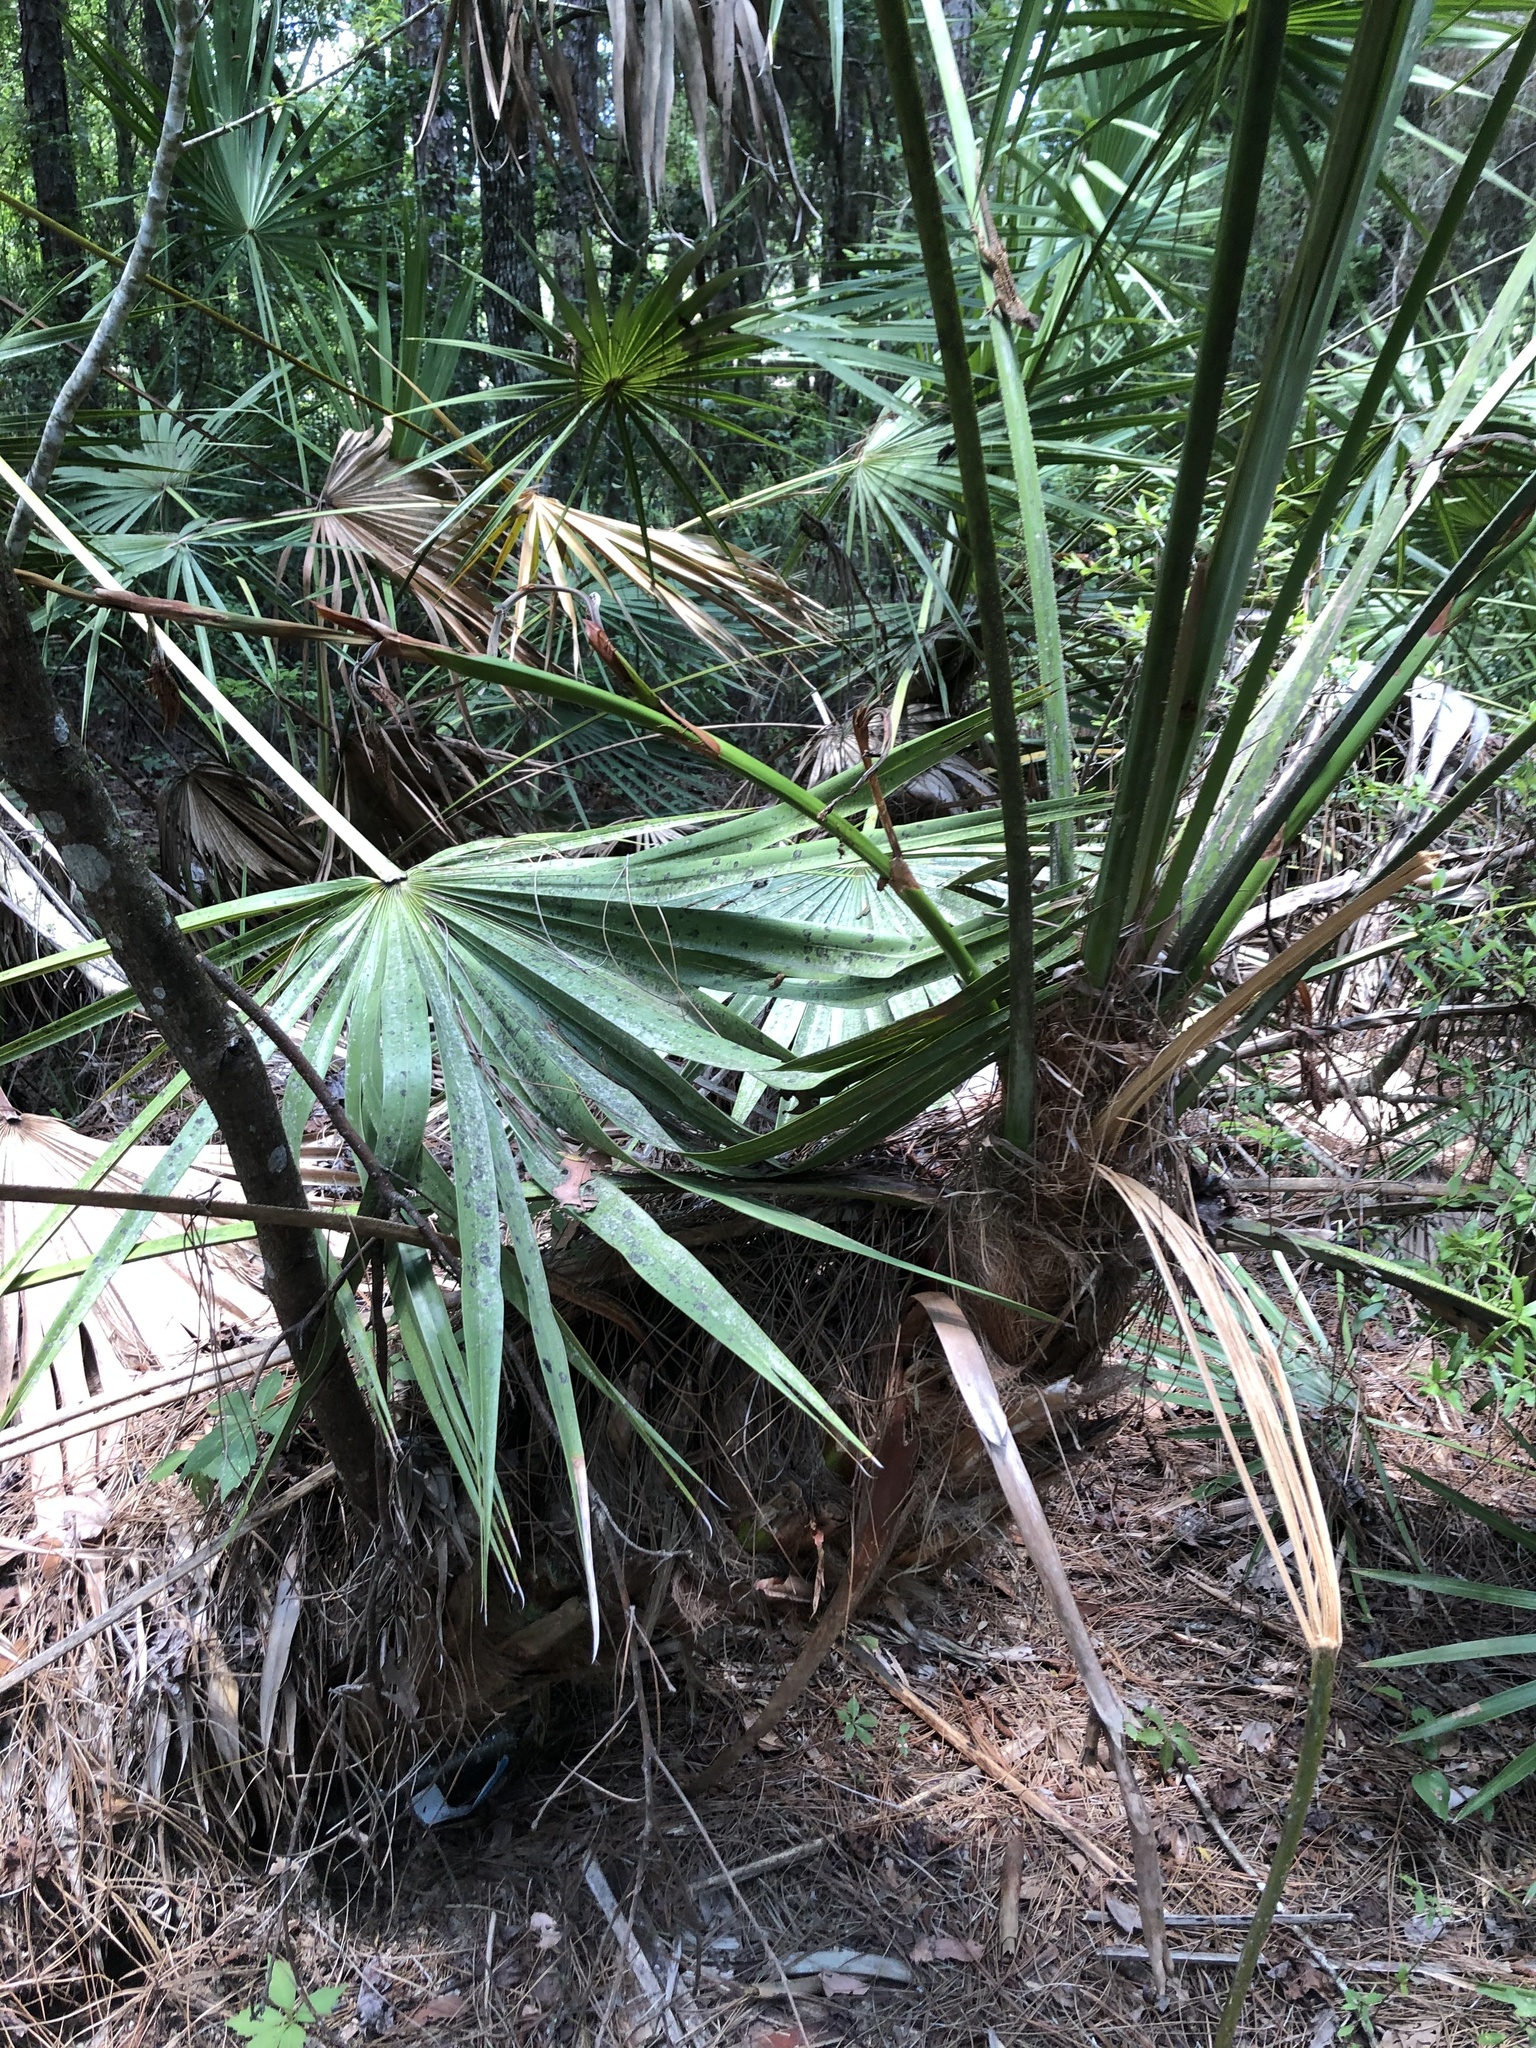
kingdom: Plantae
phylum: Tracheophyta
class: Liliopsida
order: Arecales
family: Arecaceae
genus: Serenoa
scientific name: Serenoa repens
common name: Saw-palmetto
